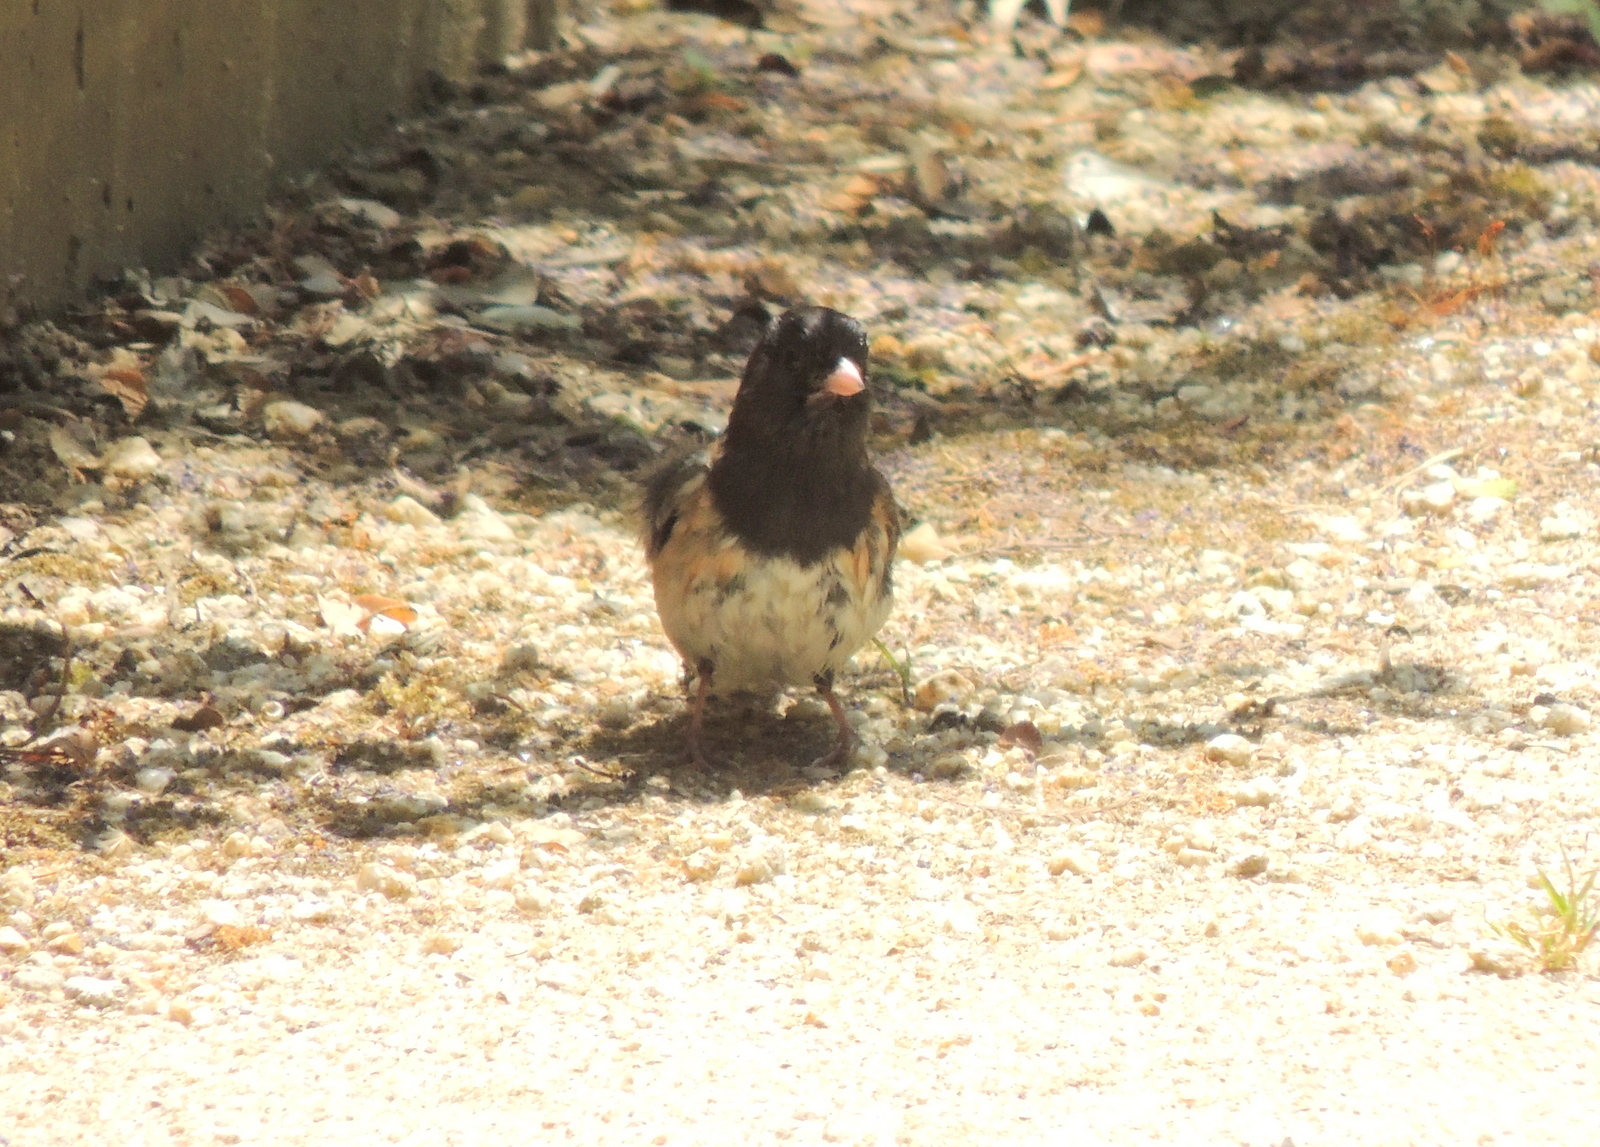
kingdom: Animalia
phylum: Chordata
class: Aves
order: Passeriformes
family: Passerellidae
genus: Junco
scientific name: Junco hyemalis
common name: Dark-eyed junco
